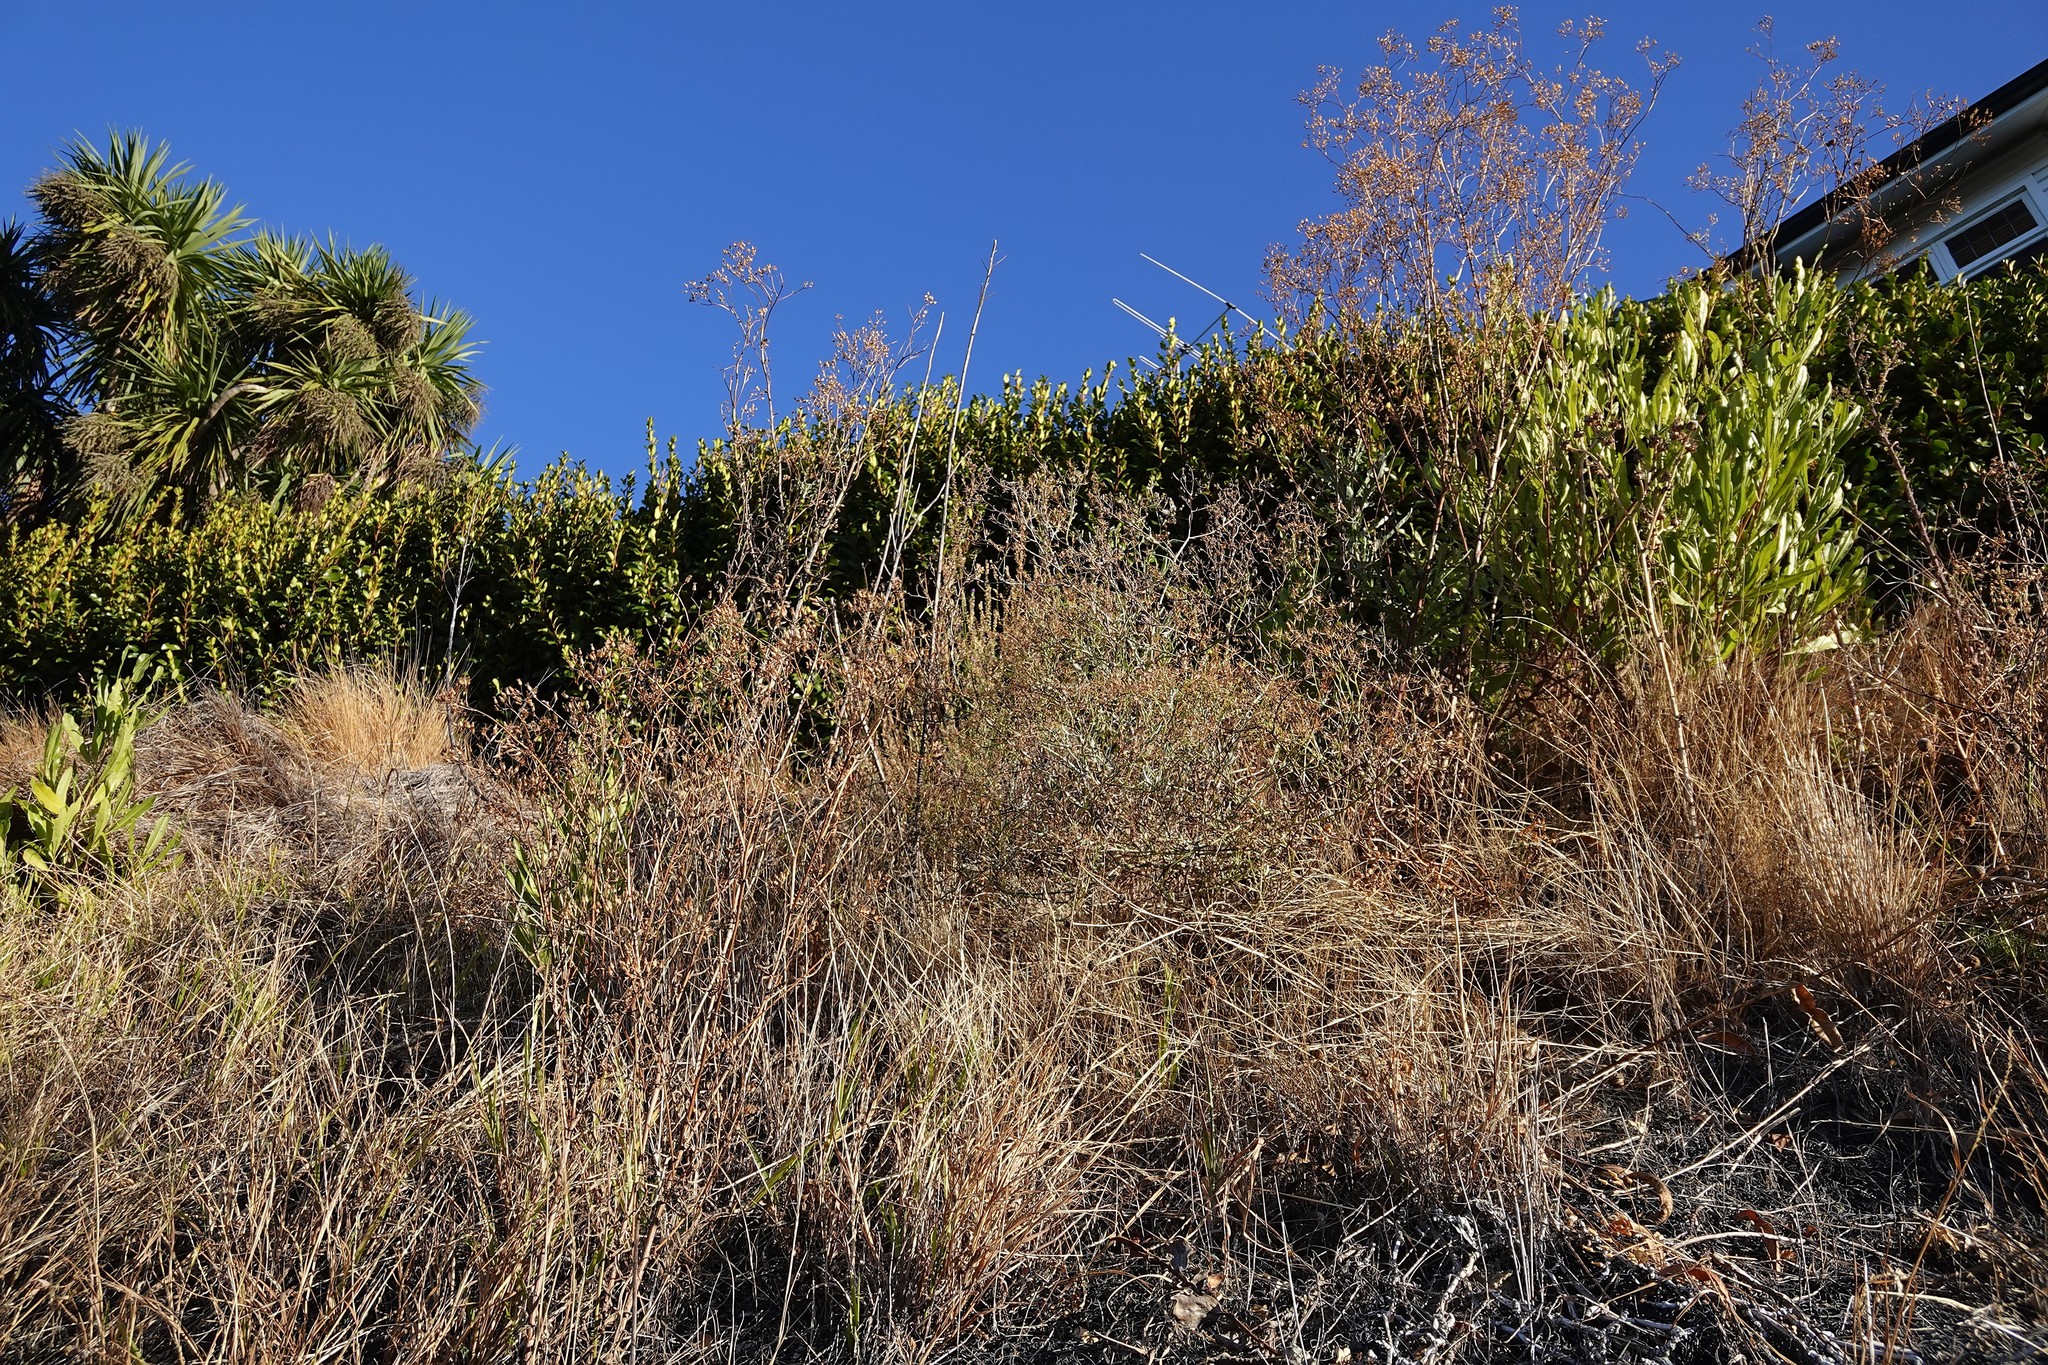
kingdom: Plantae
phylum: Tracheophyta
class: Magnoliopsida
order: Asterales
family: Asteraceae
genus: Senecio
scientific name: Senecio hispidulus
